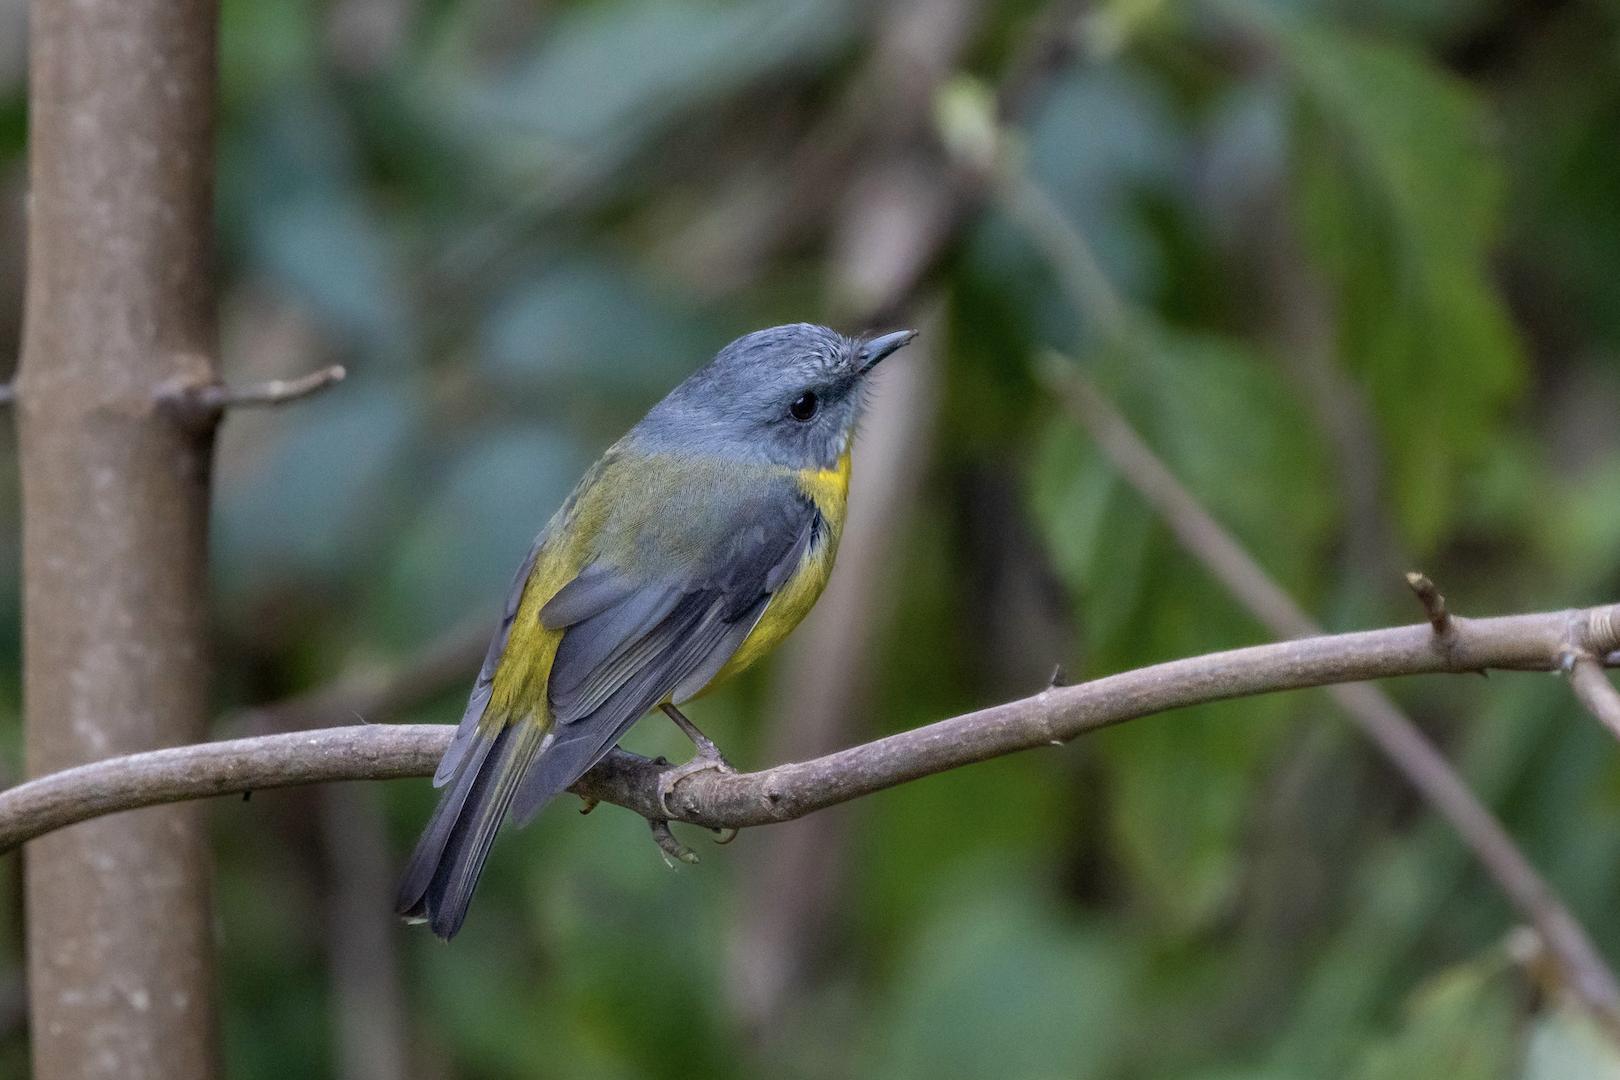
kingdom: Animalia
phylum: Chordata
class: Aves
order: Passeriformes
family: Petroicidae
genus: Eopsaltria
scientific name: Eopsaltria australis
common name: Eastern yellow robin
